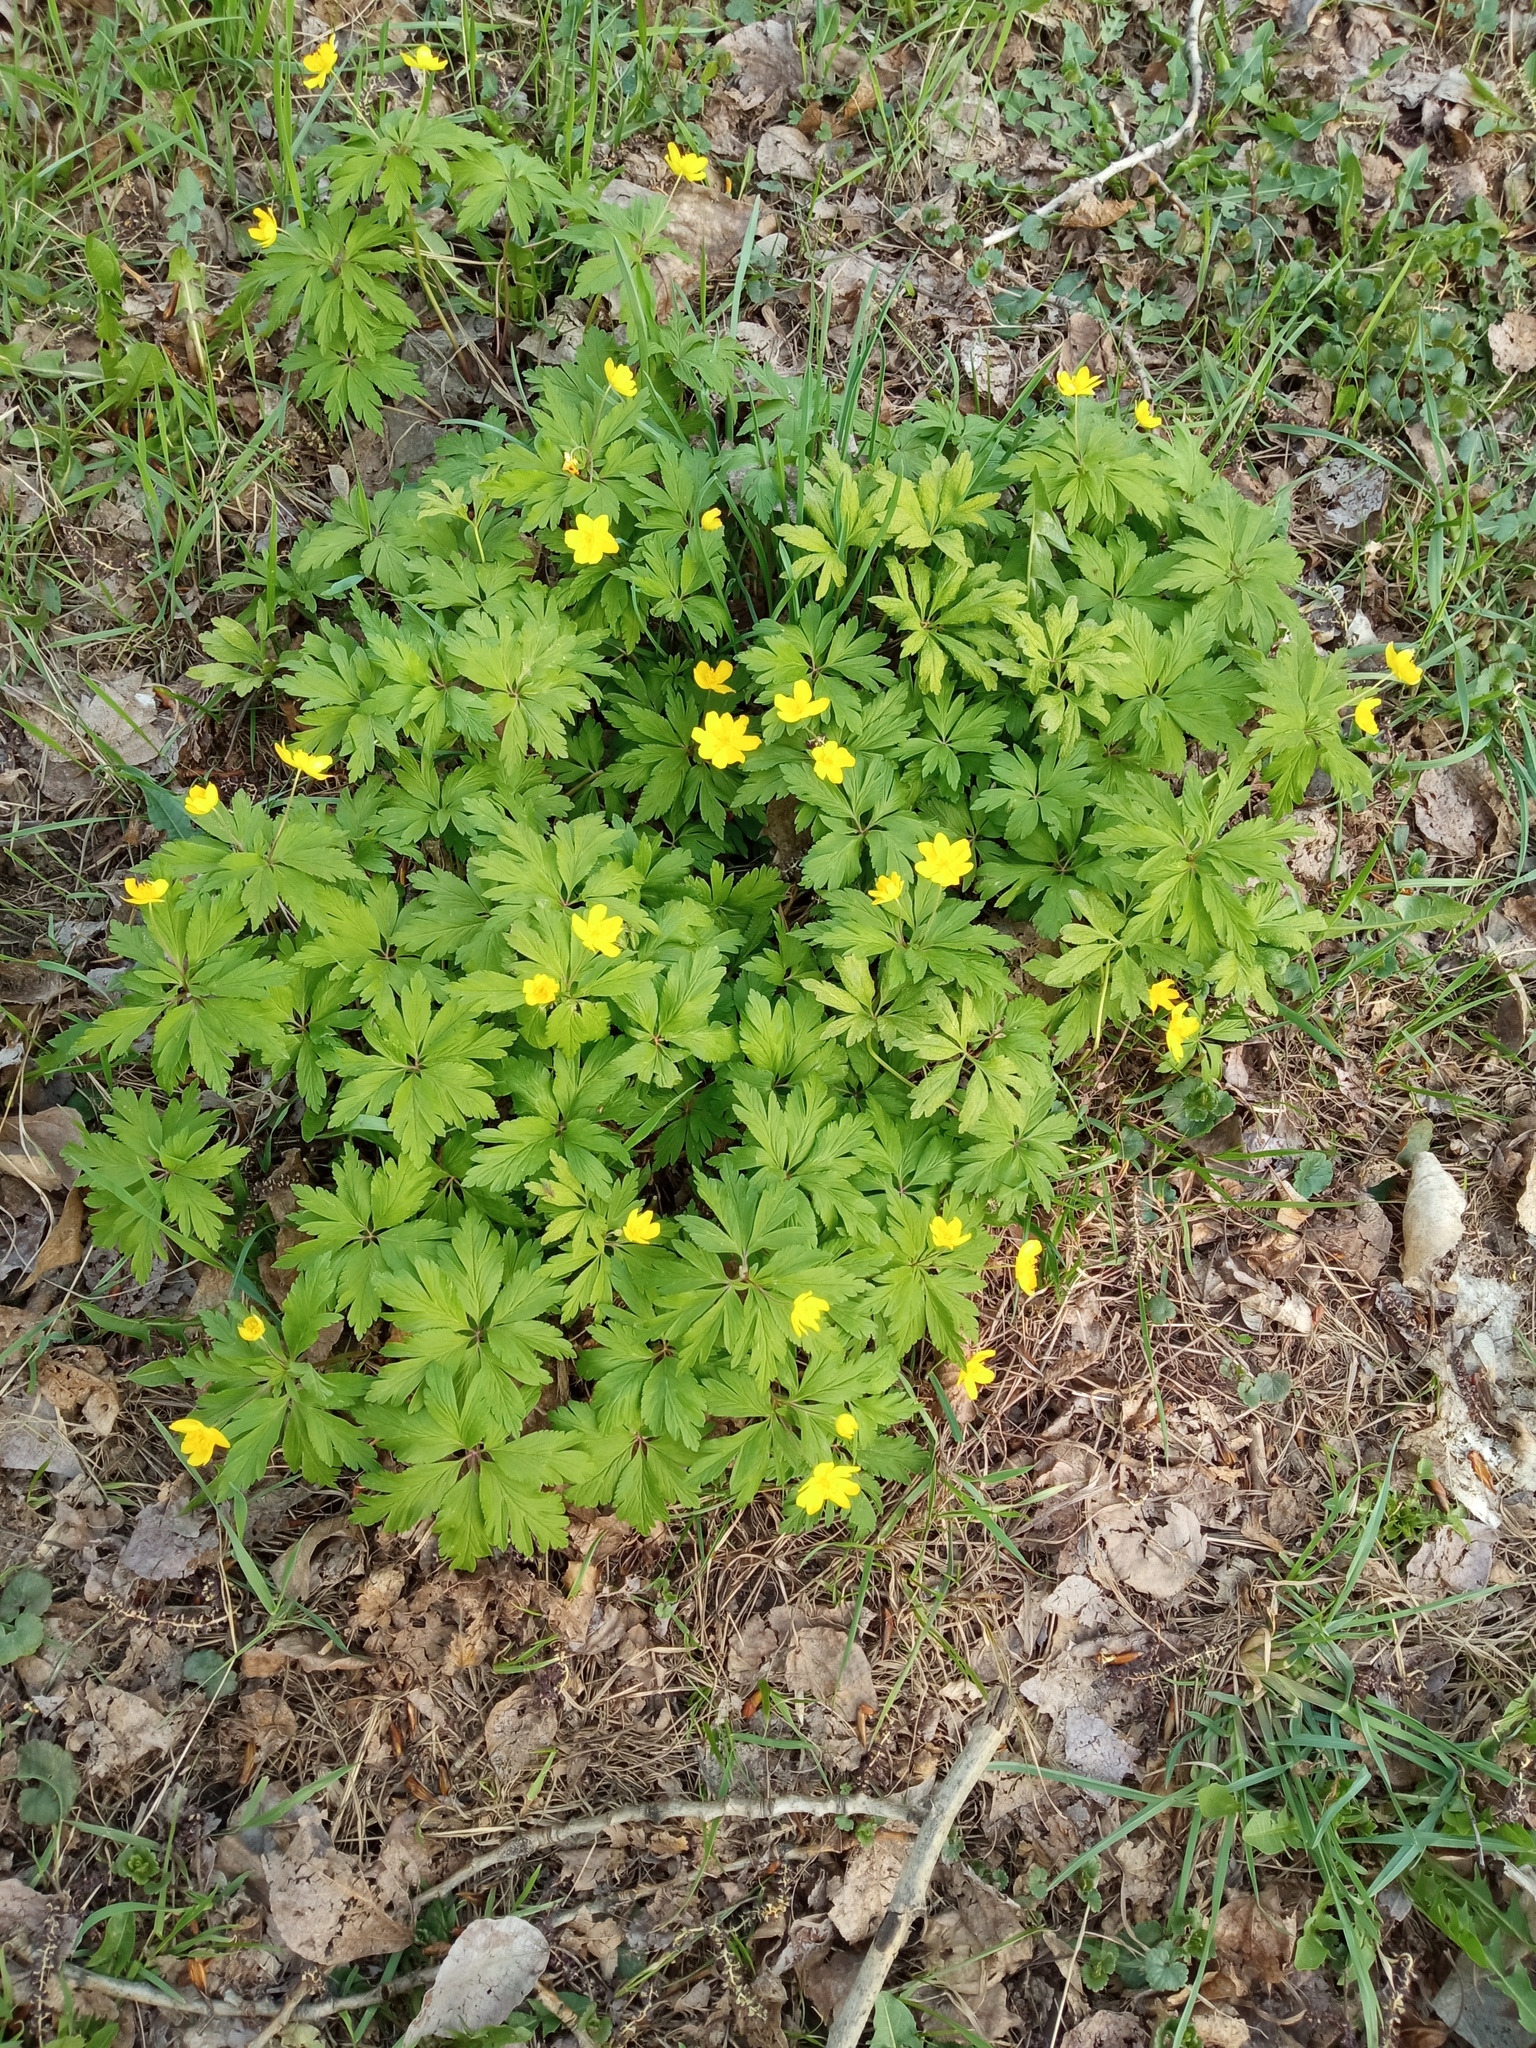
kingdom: Plantae
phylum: Tracheophyta
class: Magnoliopsida
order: Ranunculales
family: Ranunculaceae
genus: Anemone
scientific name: Anemone ranunculoides
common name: Yellow anemone
